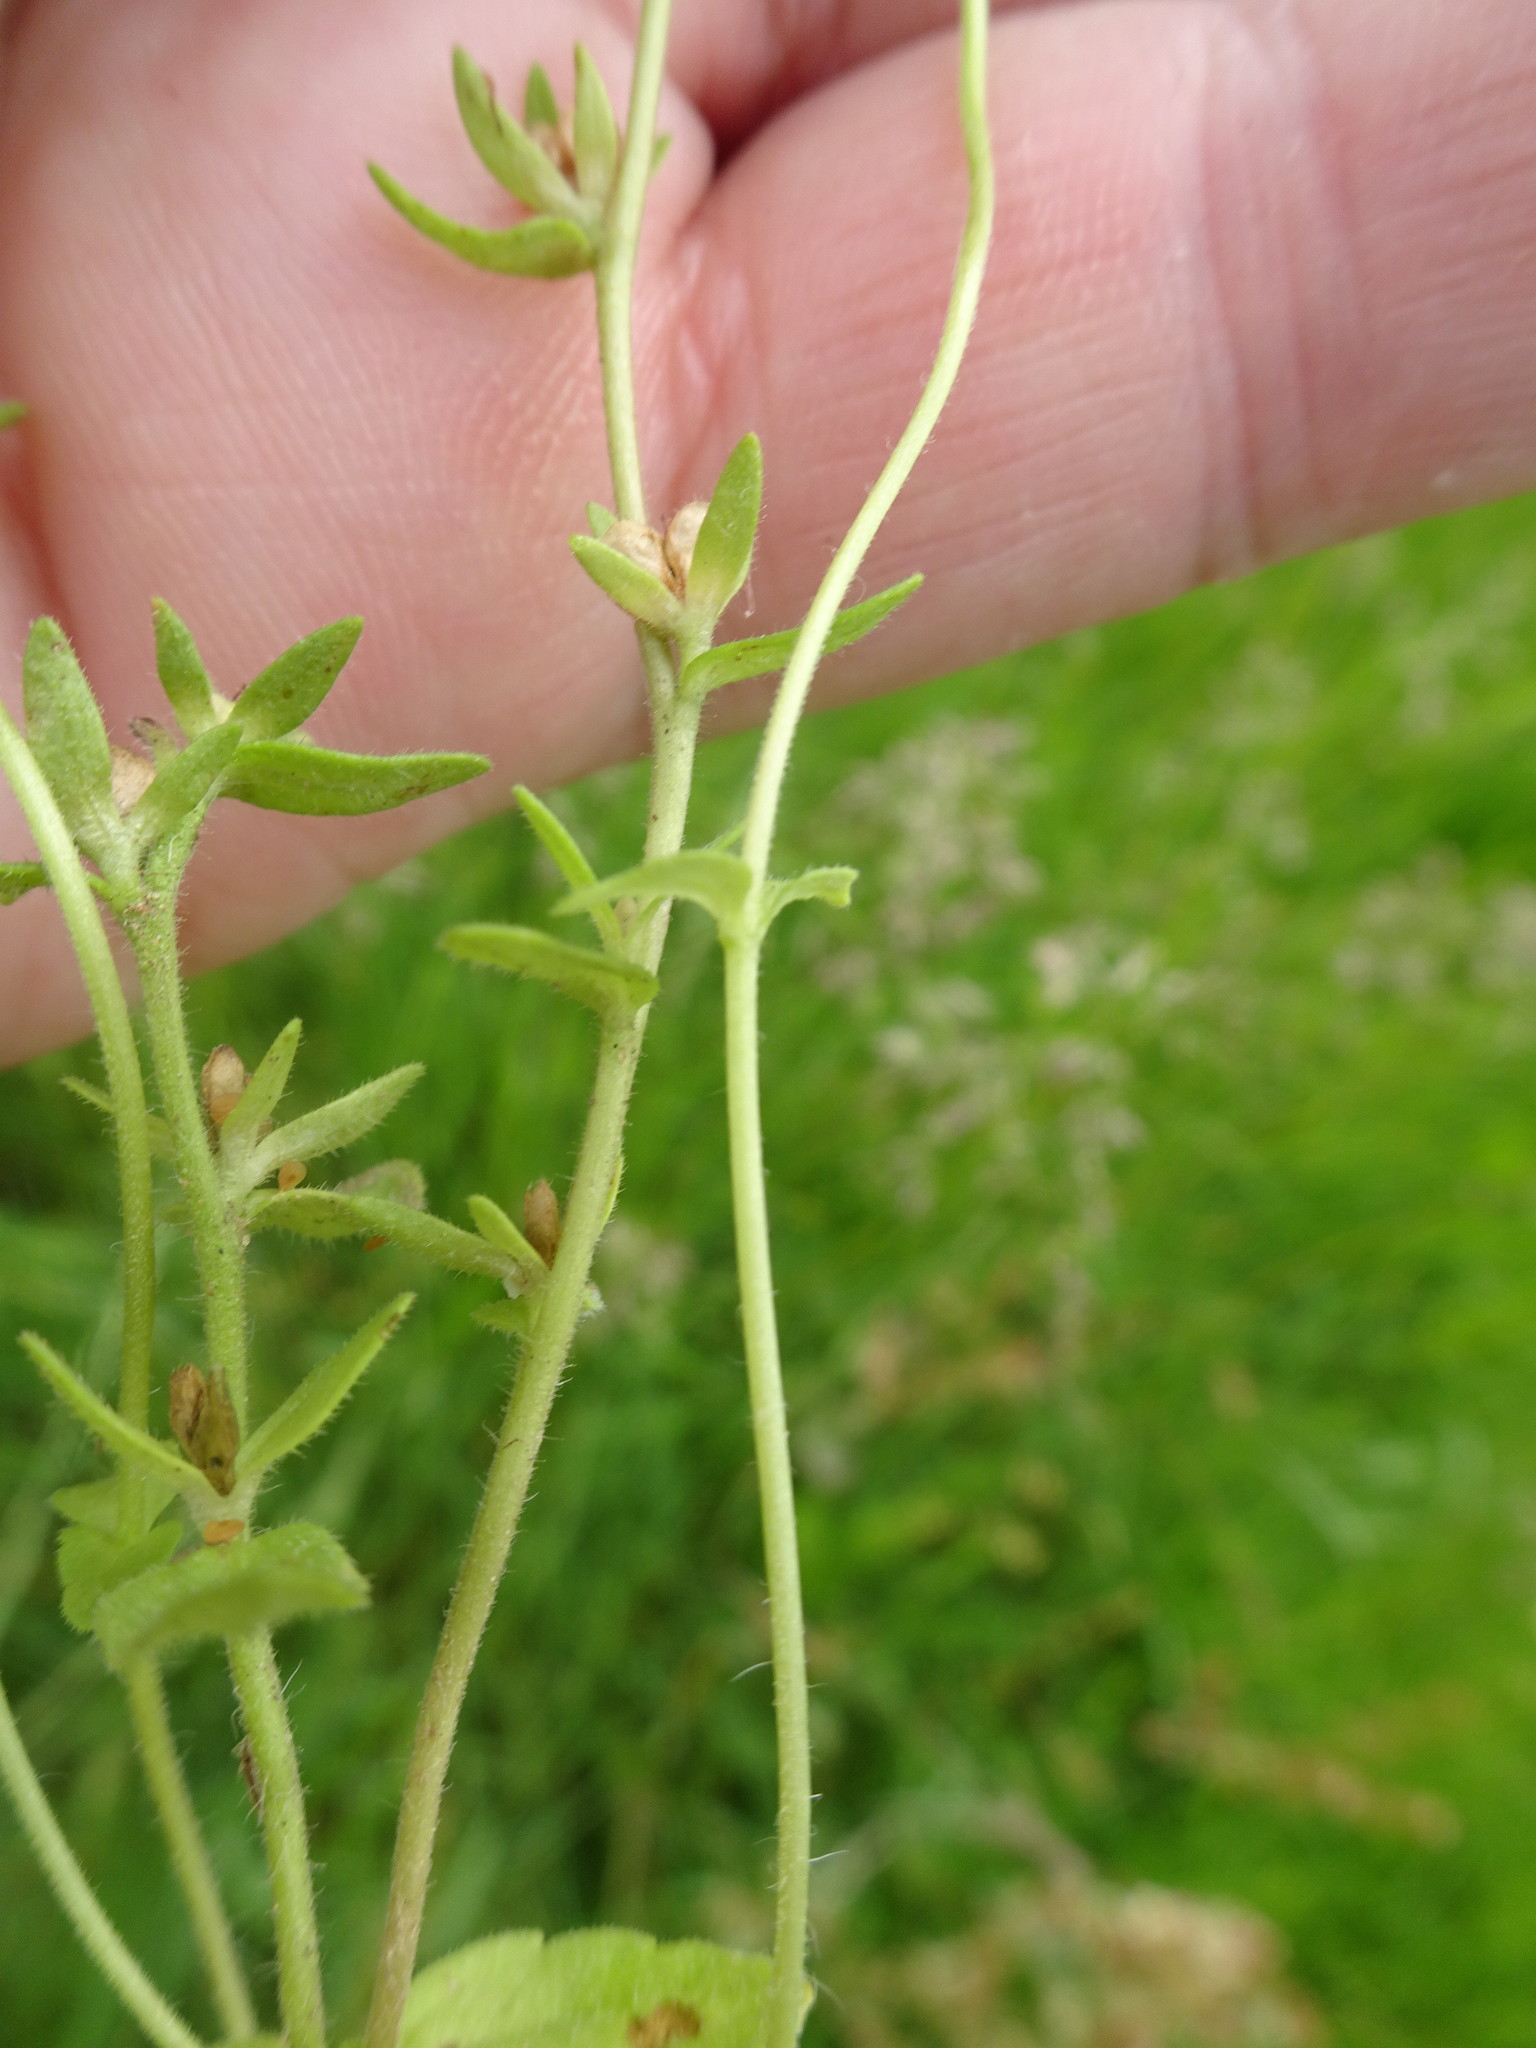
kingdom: Plantae
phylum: Tracheophyta
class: Magnoliopsida
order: Lamiales
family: Plantaginaceae
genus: Veronica
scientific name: Veronica arvensis
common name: Corn speedwell
